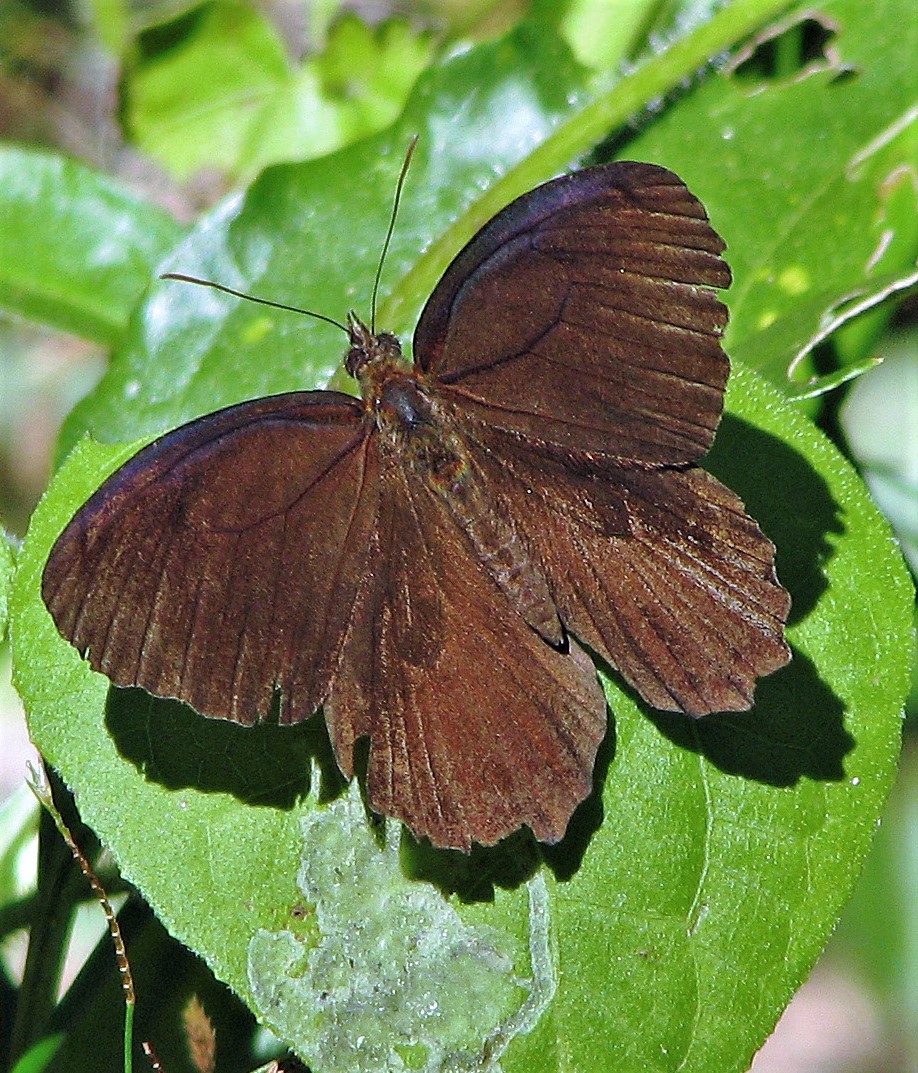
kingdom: Animalia
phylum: Arthropoda
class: Insecta
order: Lepidoptera
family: Nymphalidae
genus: Praepedaliodes
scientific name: Praepedaliodes phanias
